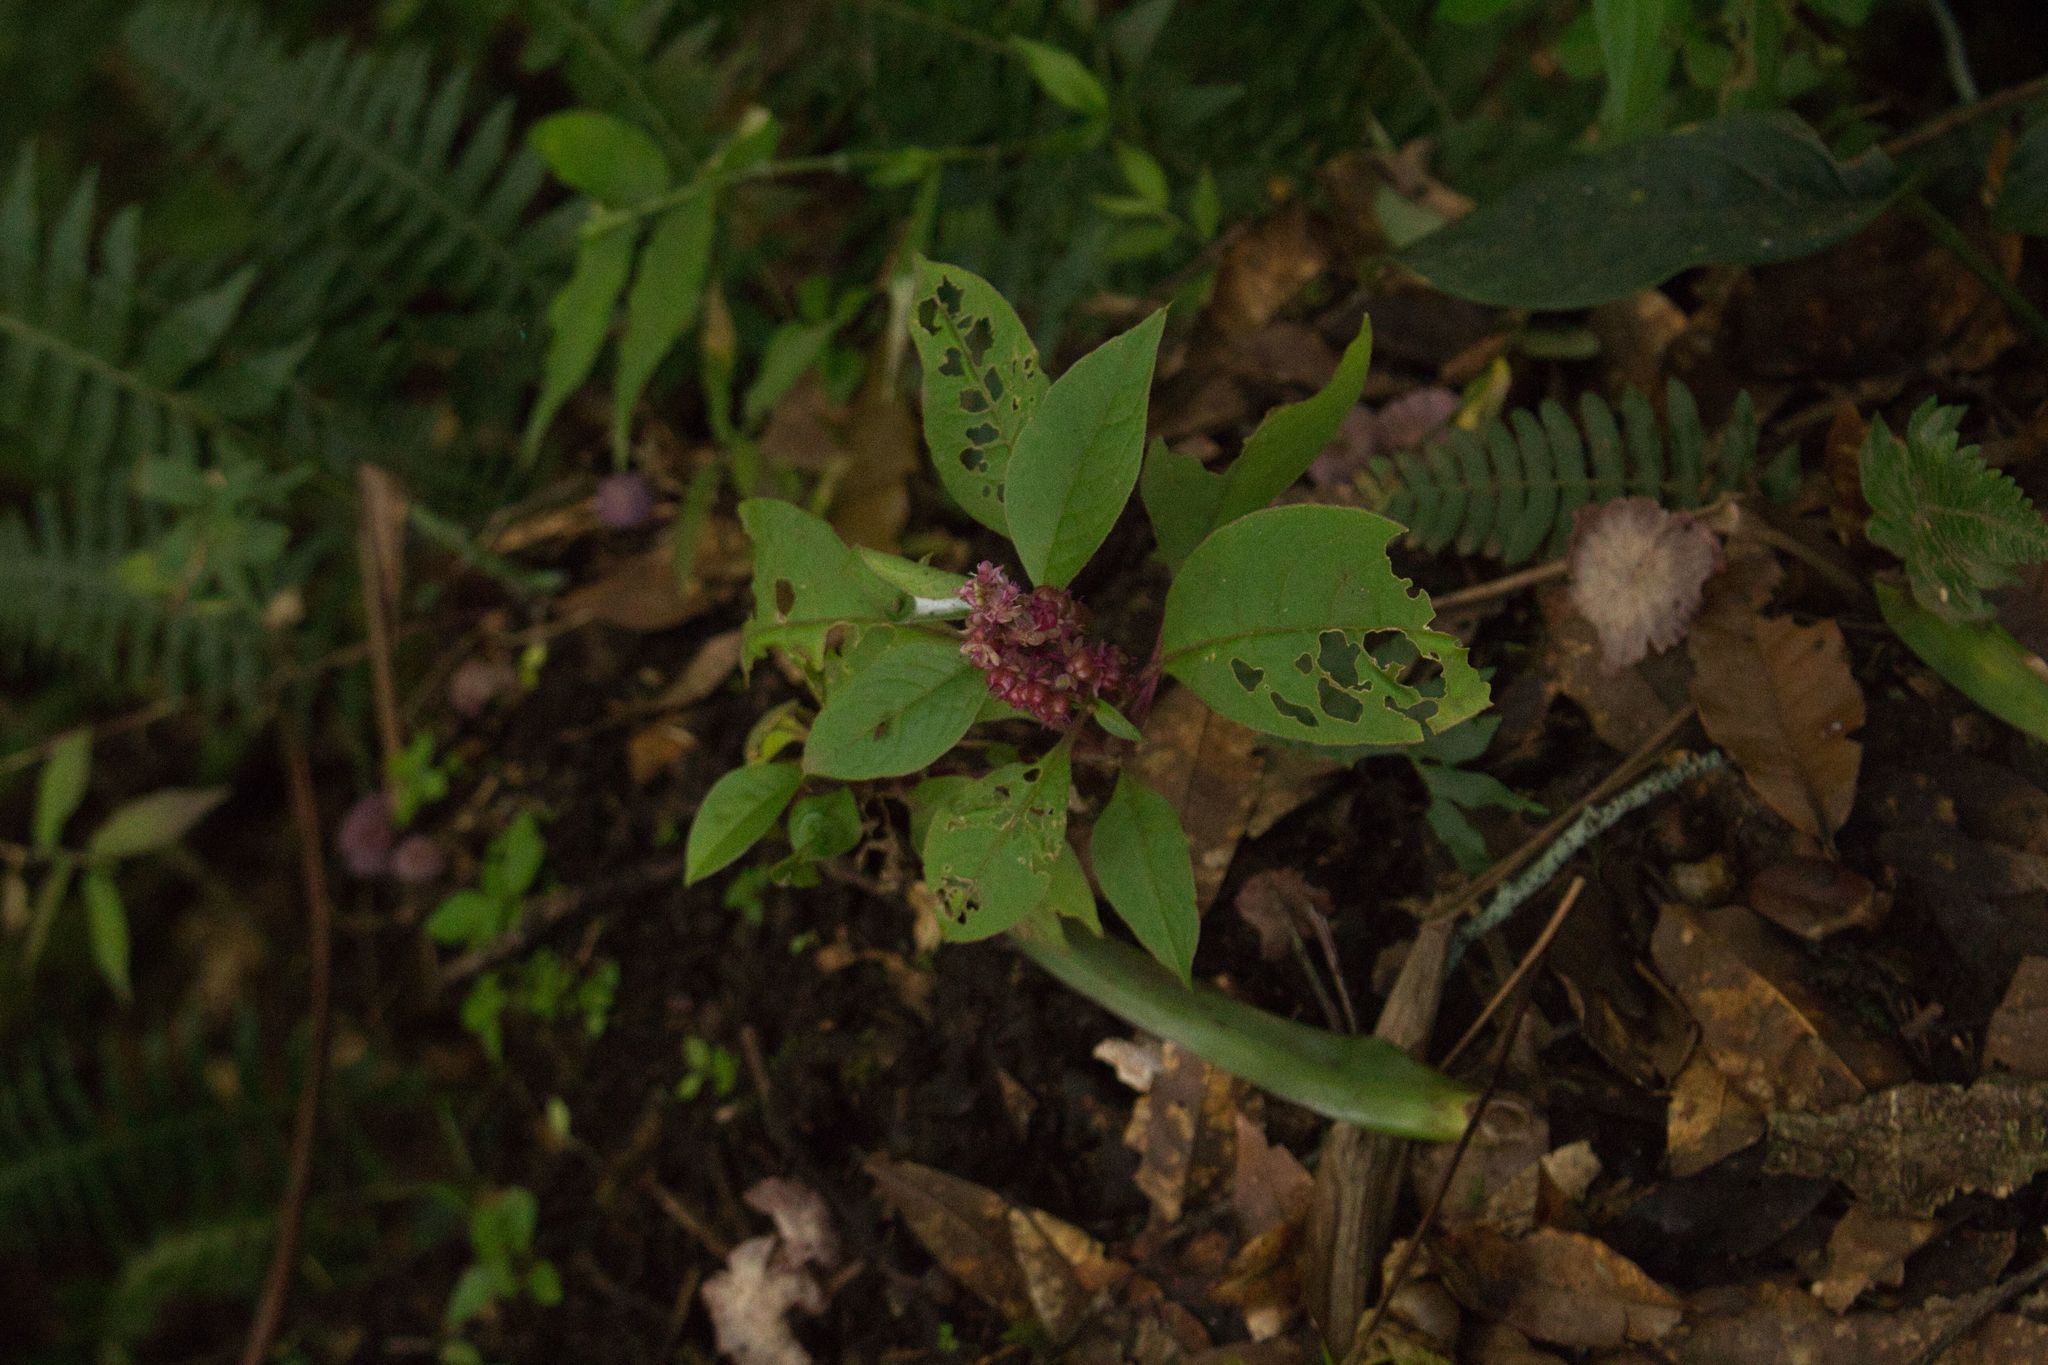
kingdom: Plantae
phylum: Tracheophyta
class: Magnoliopsida
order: Caryophyllales
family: Phytolaccaceae
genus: Phytolacca
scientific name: Phytolacca rugosa
